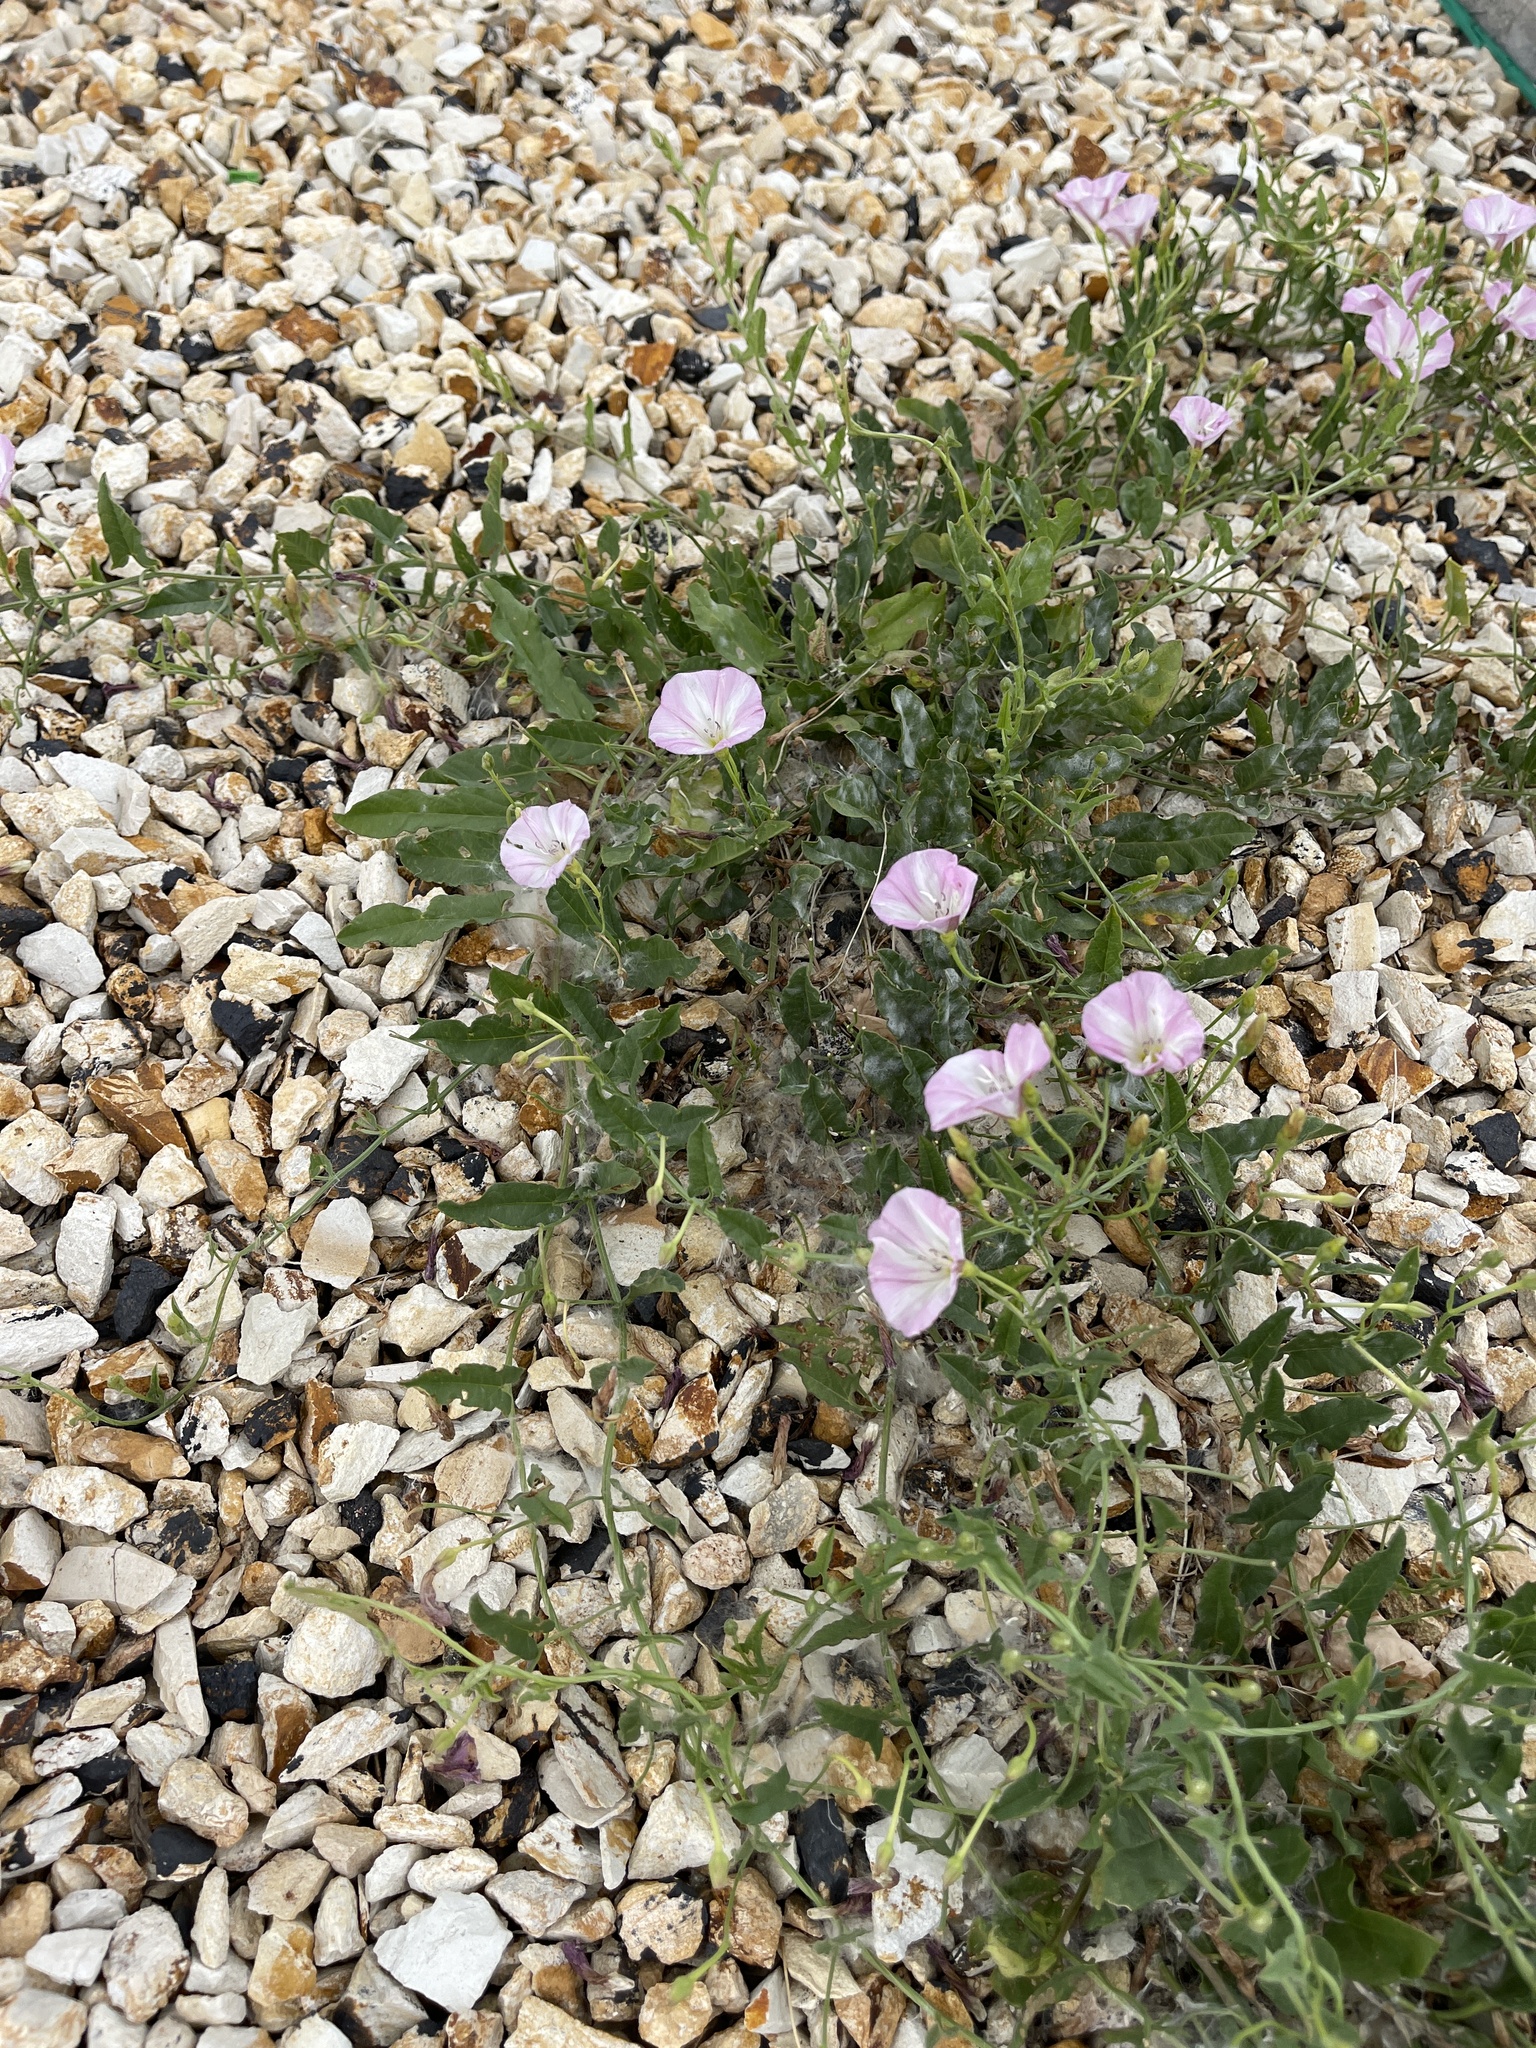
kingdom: Plantae
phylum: Tracheophyta
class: Magnoliopsida
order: Solanales
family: Convolvulaceae
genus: Convolvulus
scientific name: Convolvulus arvensis
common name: Field bindweed
